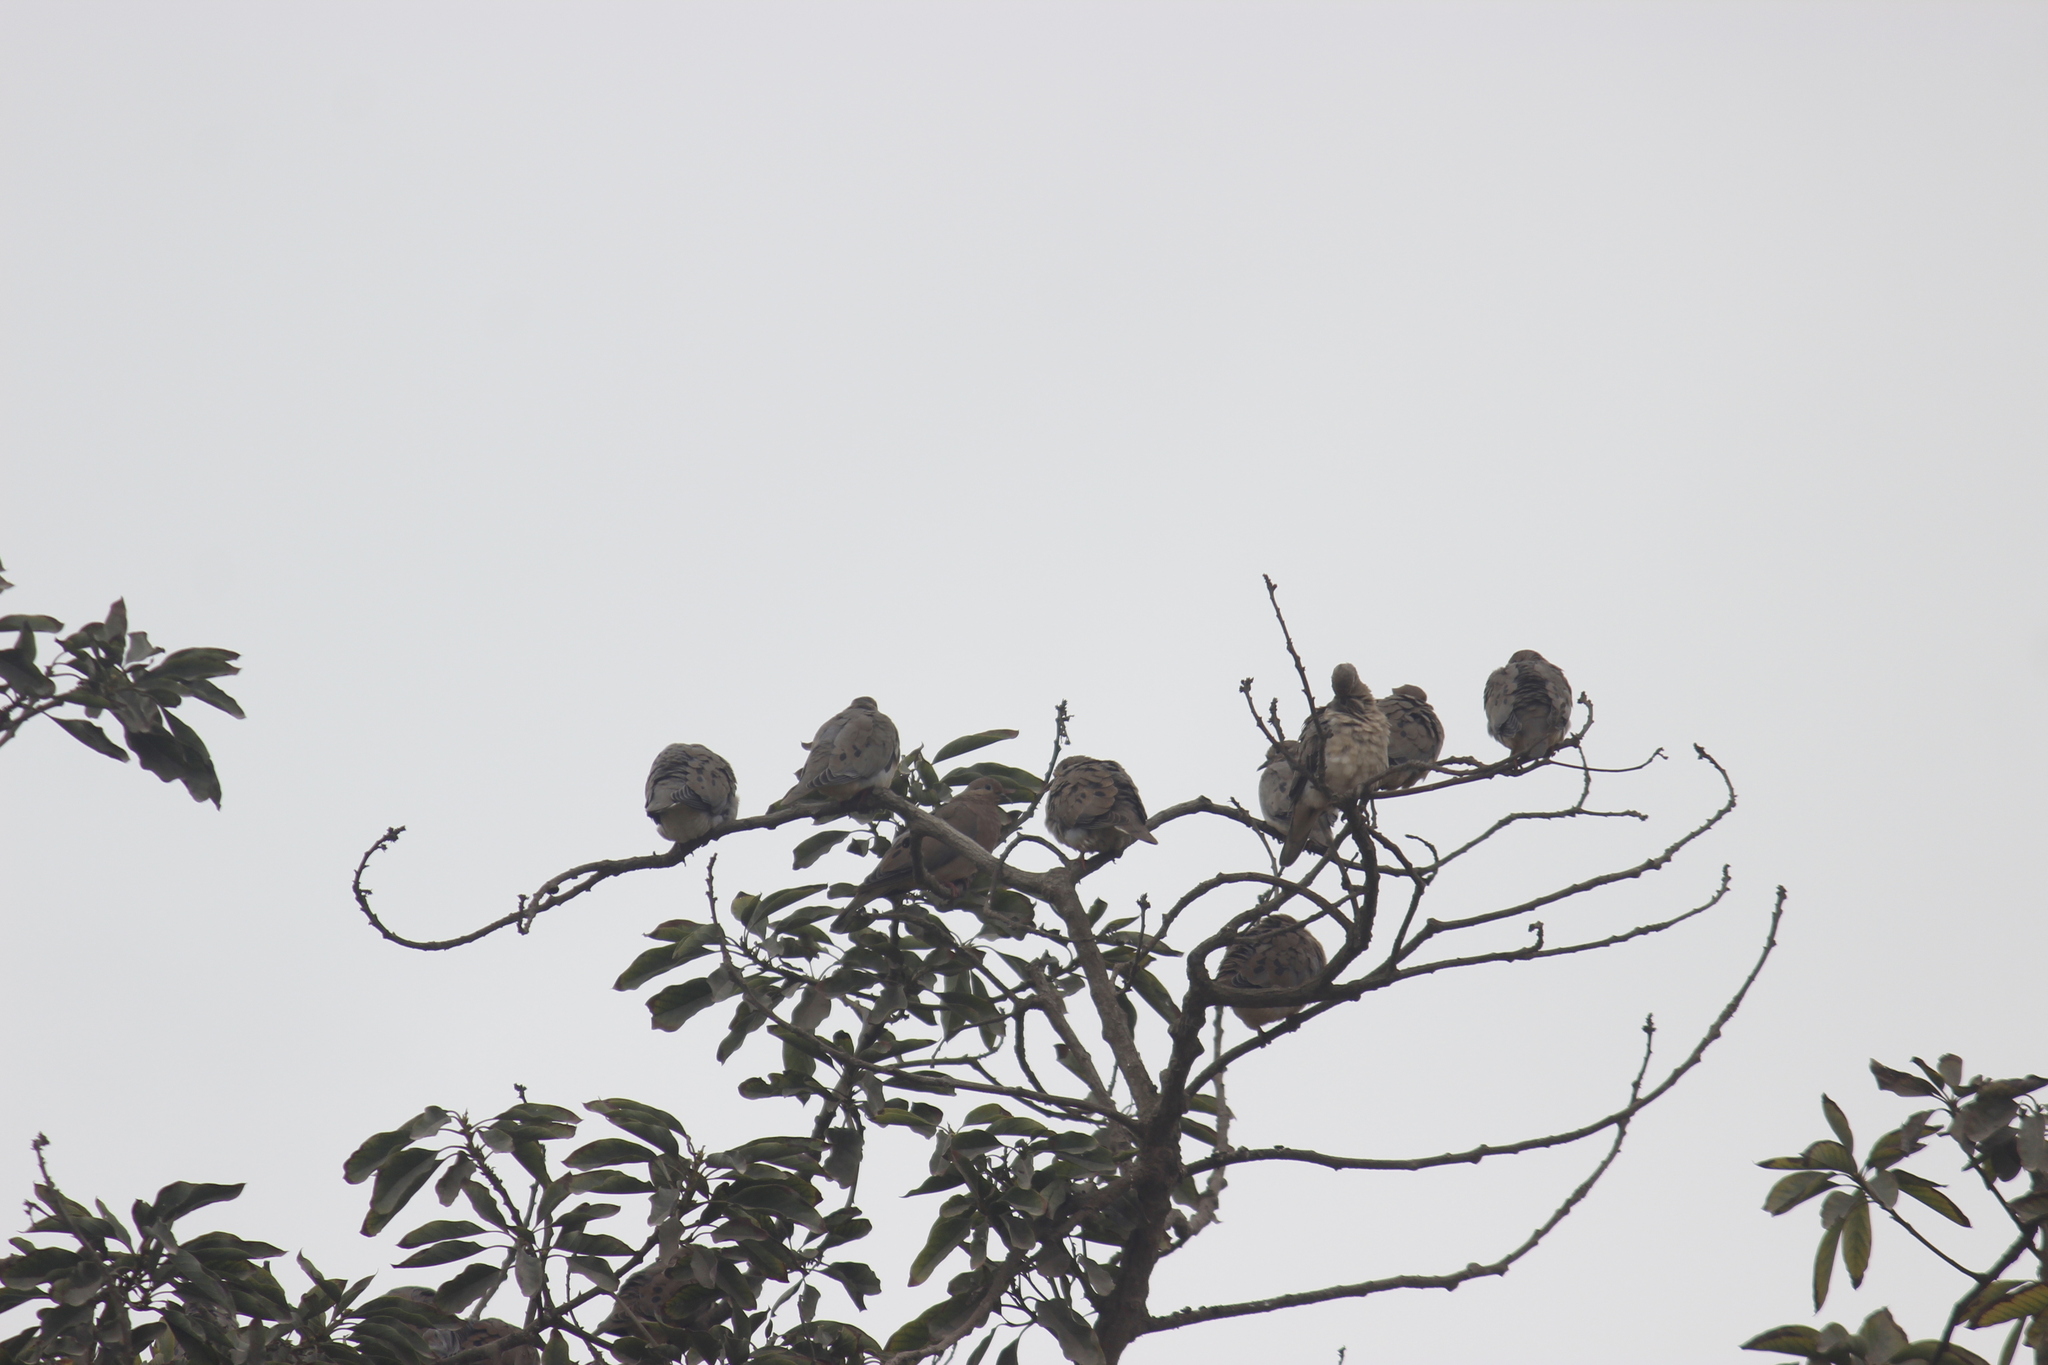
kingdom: Animalia
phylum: Chordata
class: Aves
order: Columbiformes
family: Columbidae
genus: Zenaida
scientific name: Zenaida auriculata
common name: Eared dove
